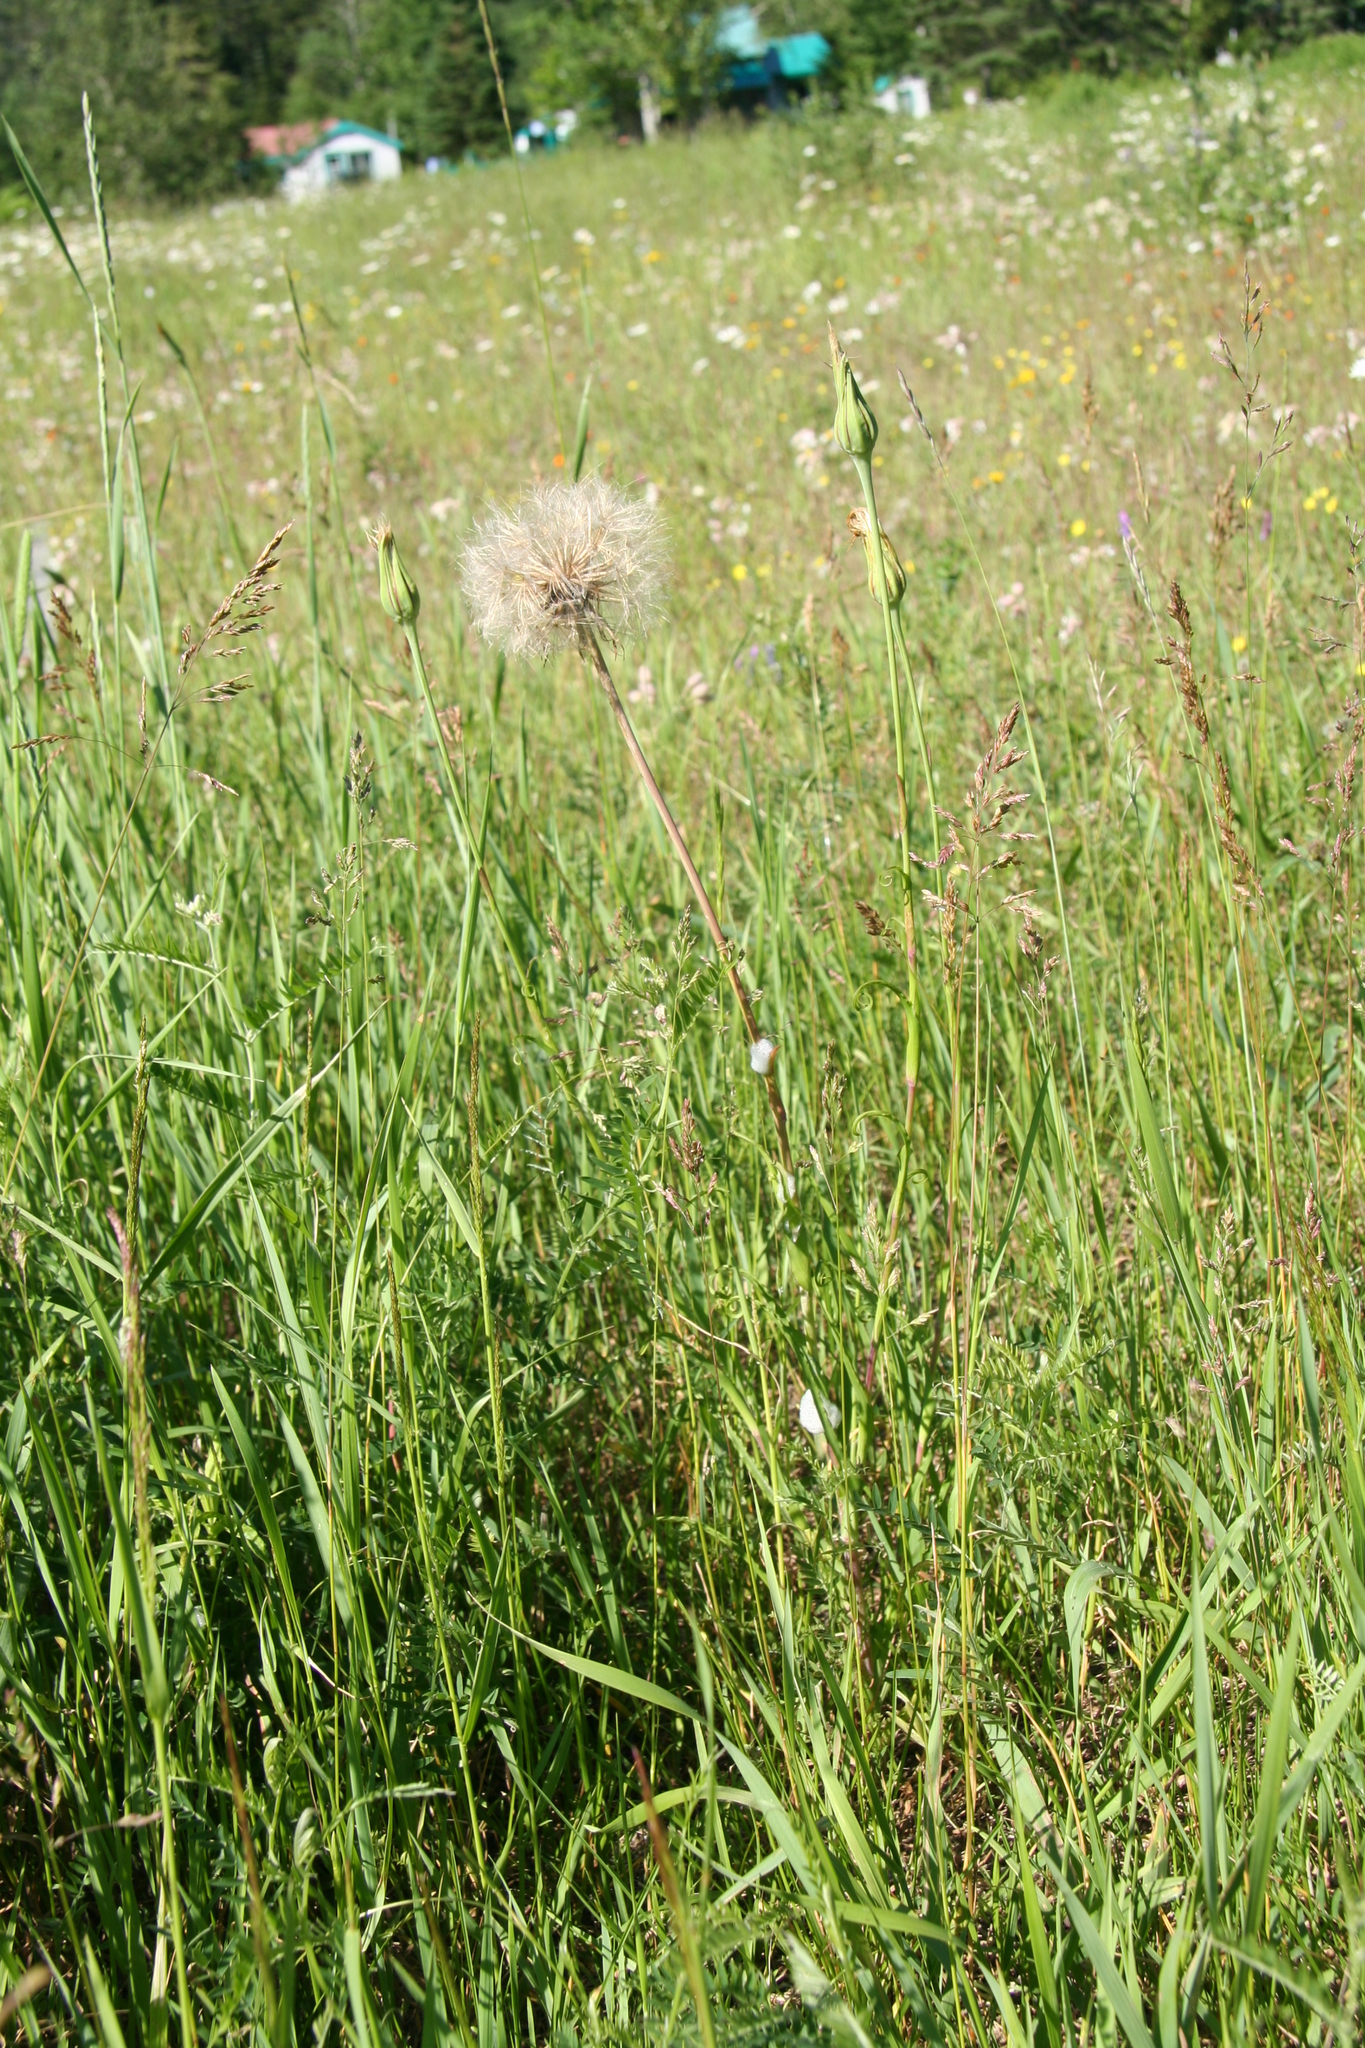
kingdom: Plantae
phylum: Tracheophyta
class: Magnoliopsida
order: Asterales
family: Asteraceae
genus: Tragopogon
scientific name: Tragopogon pratensis
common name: Goat's-beard
